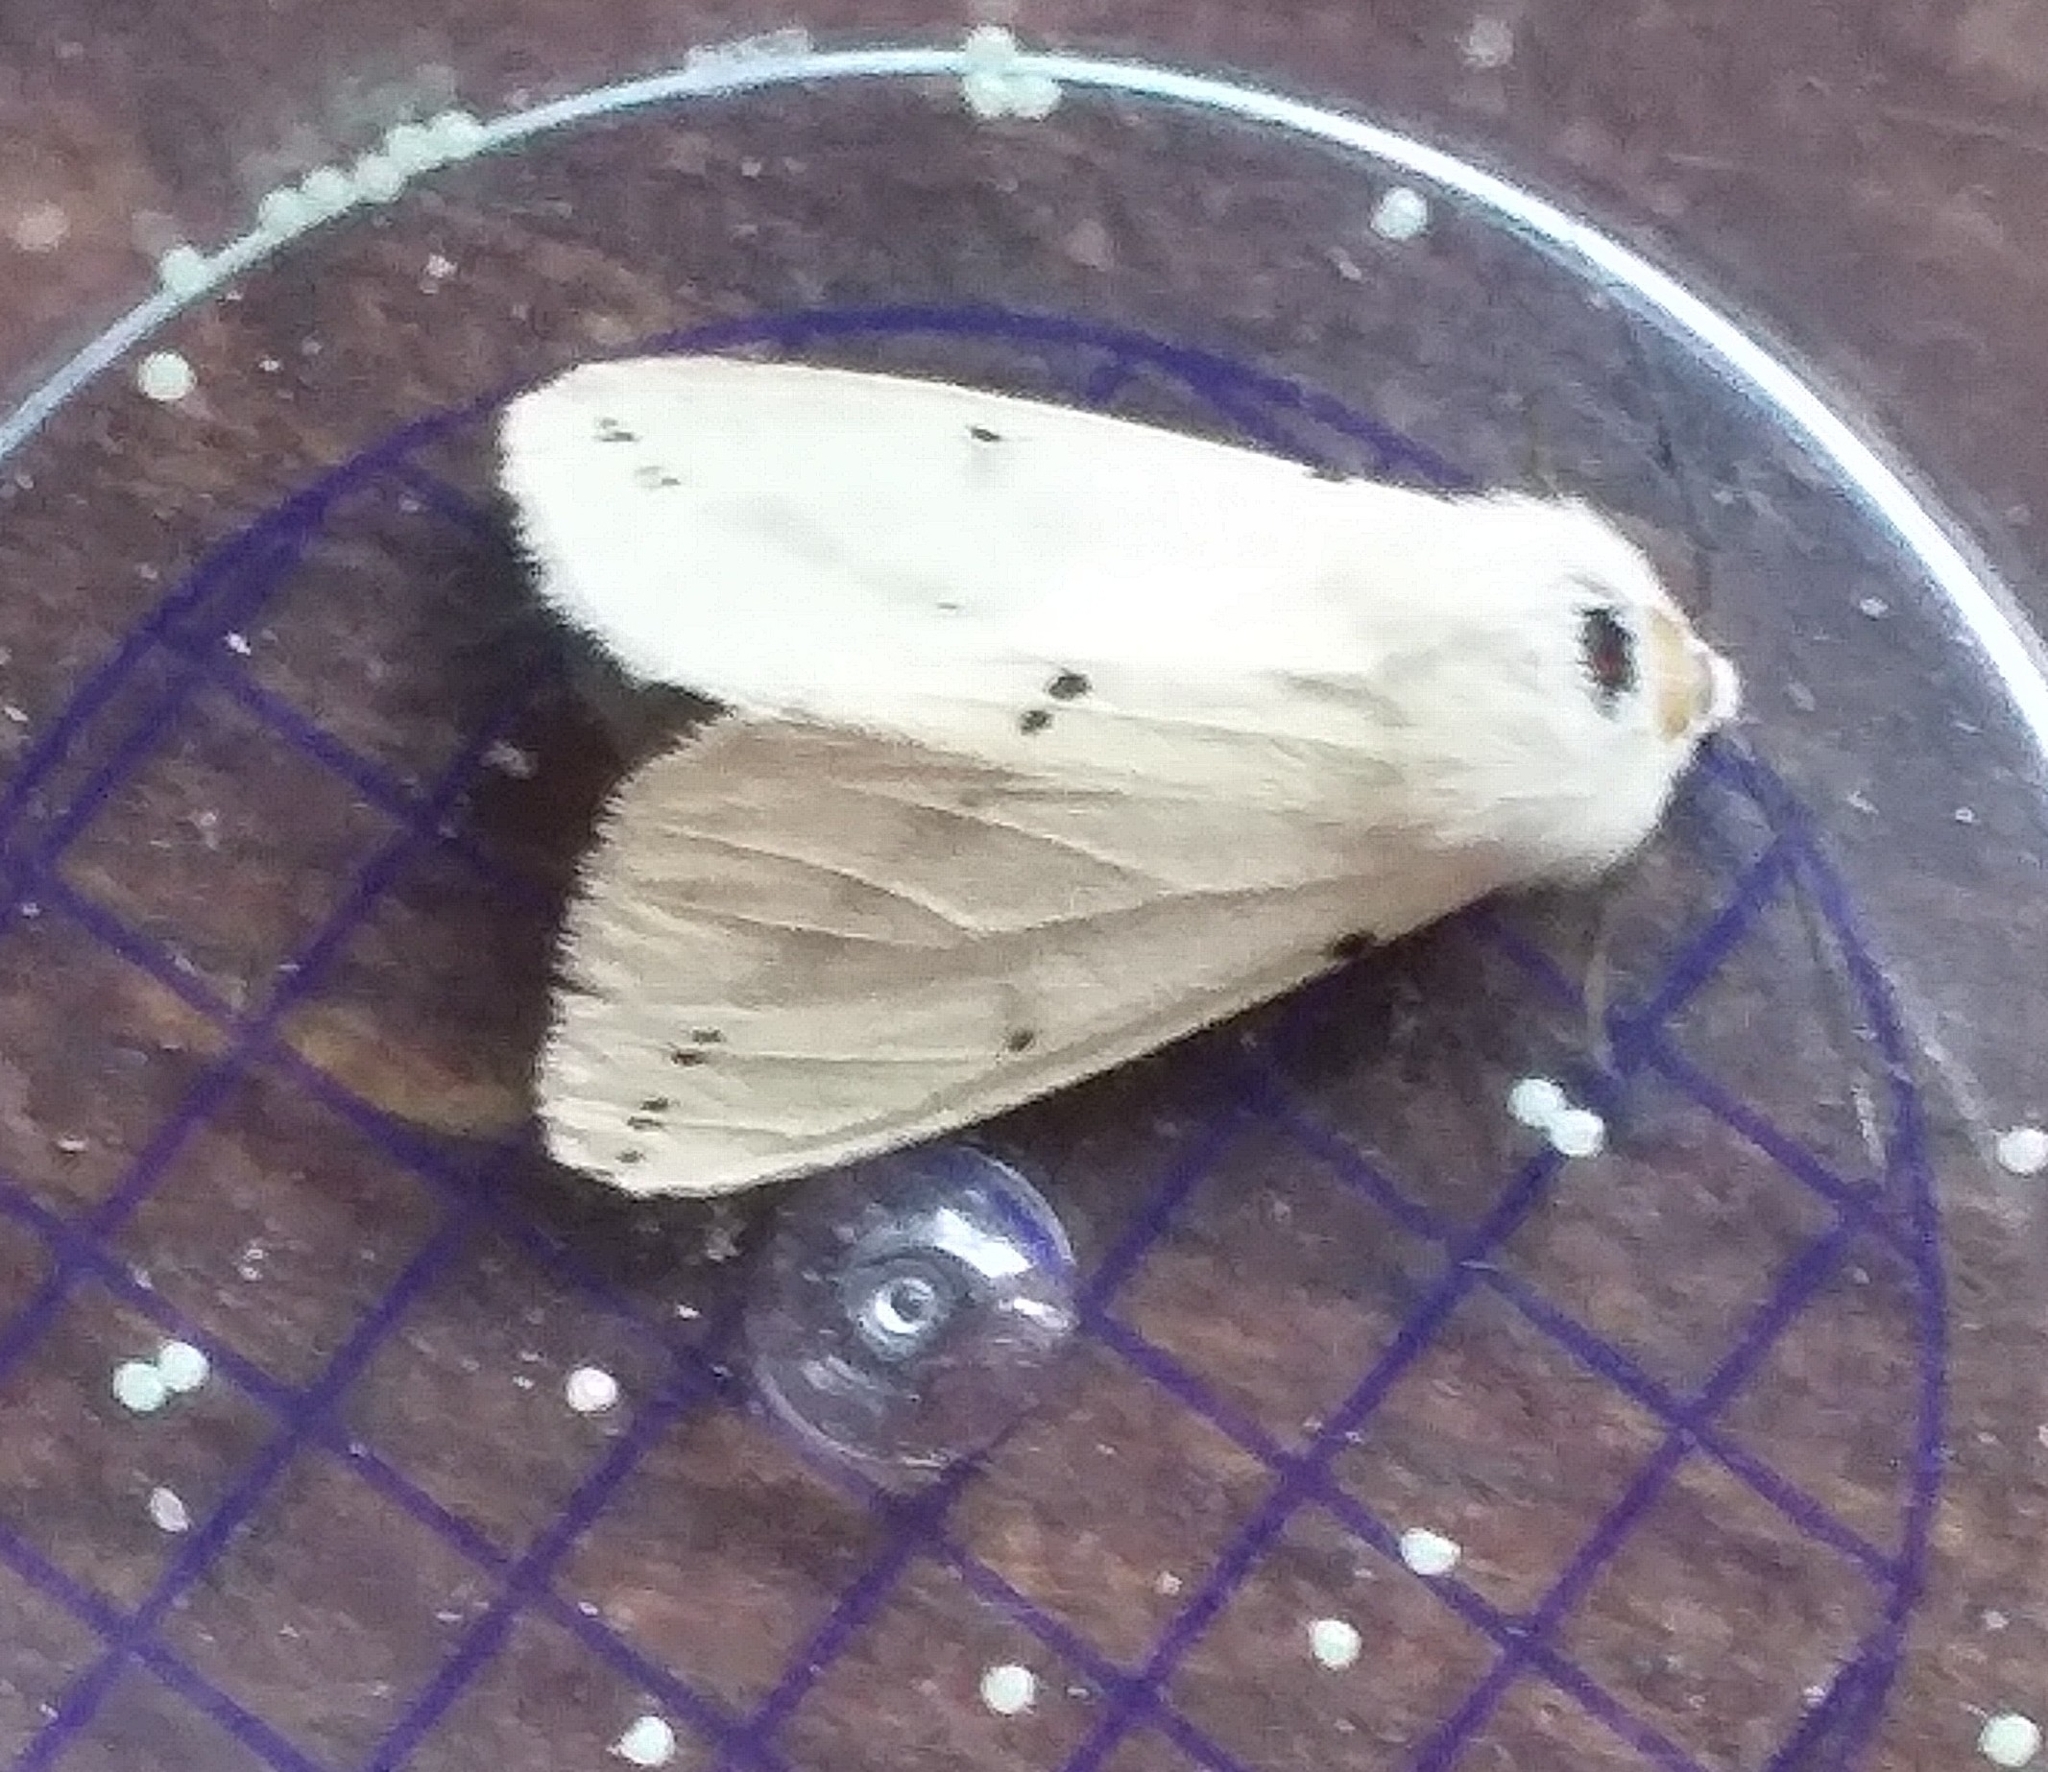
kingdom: Animalia
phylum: Arthropoda
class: Insecta
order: Lepidoptera
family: Erebidae
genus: Spilarctia
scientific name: Spilarctia lutea
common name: Buff ermine
